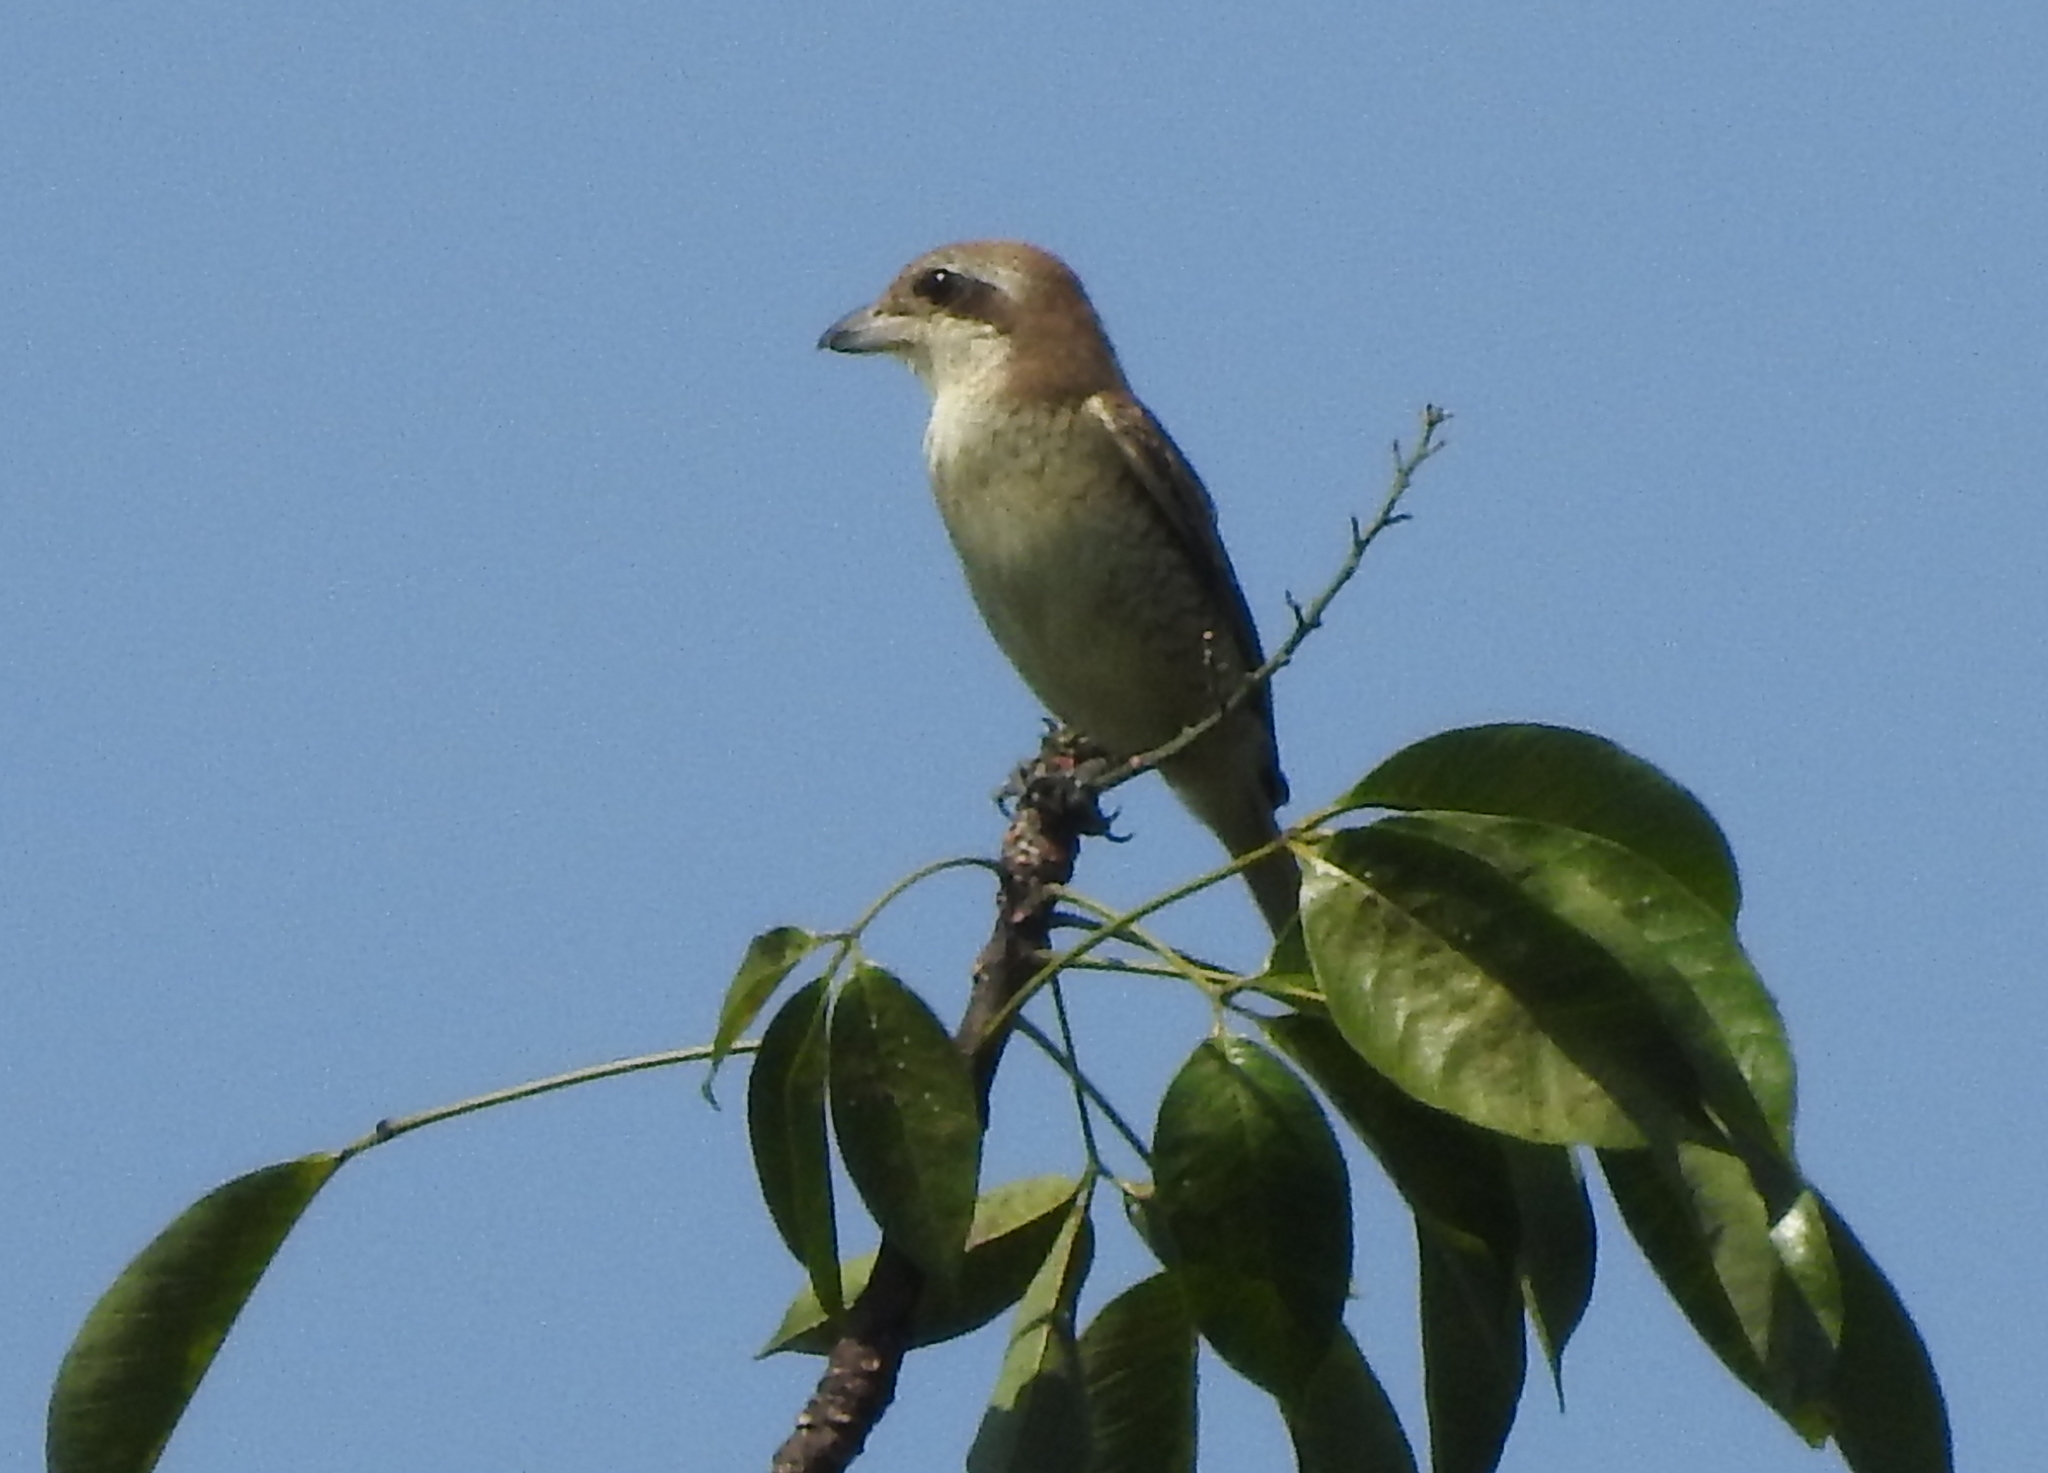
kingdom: Animalia
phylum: Chordata
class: Aves
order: Passeriformes
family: Laniidae
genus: Lanius
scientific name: Lanius cristatus
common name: Brown shrike
